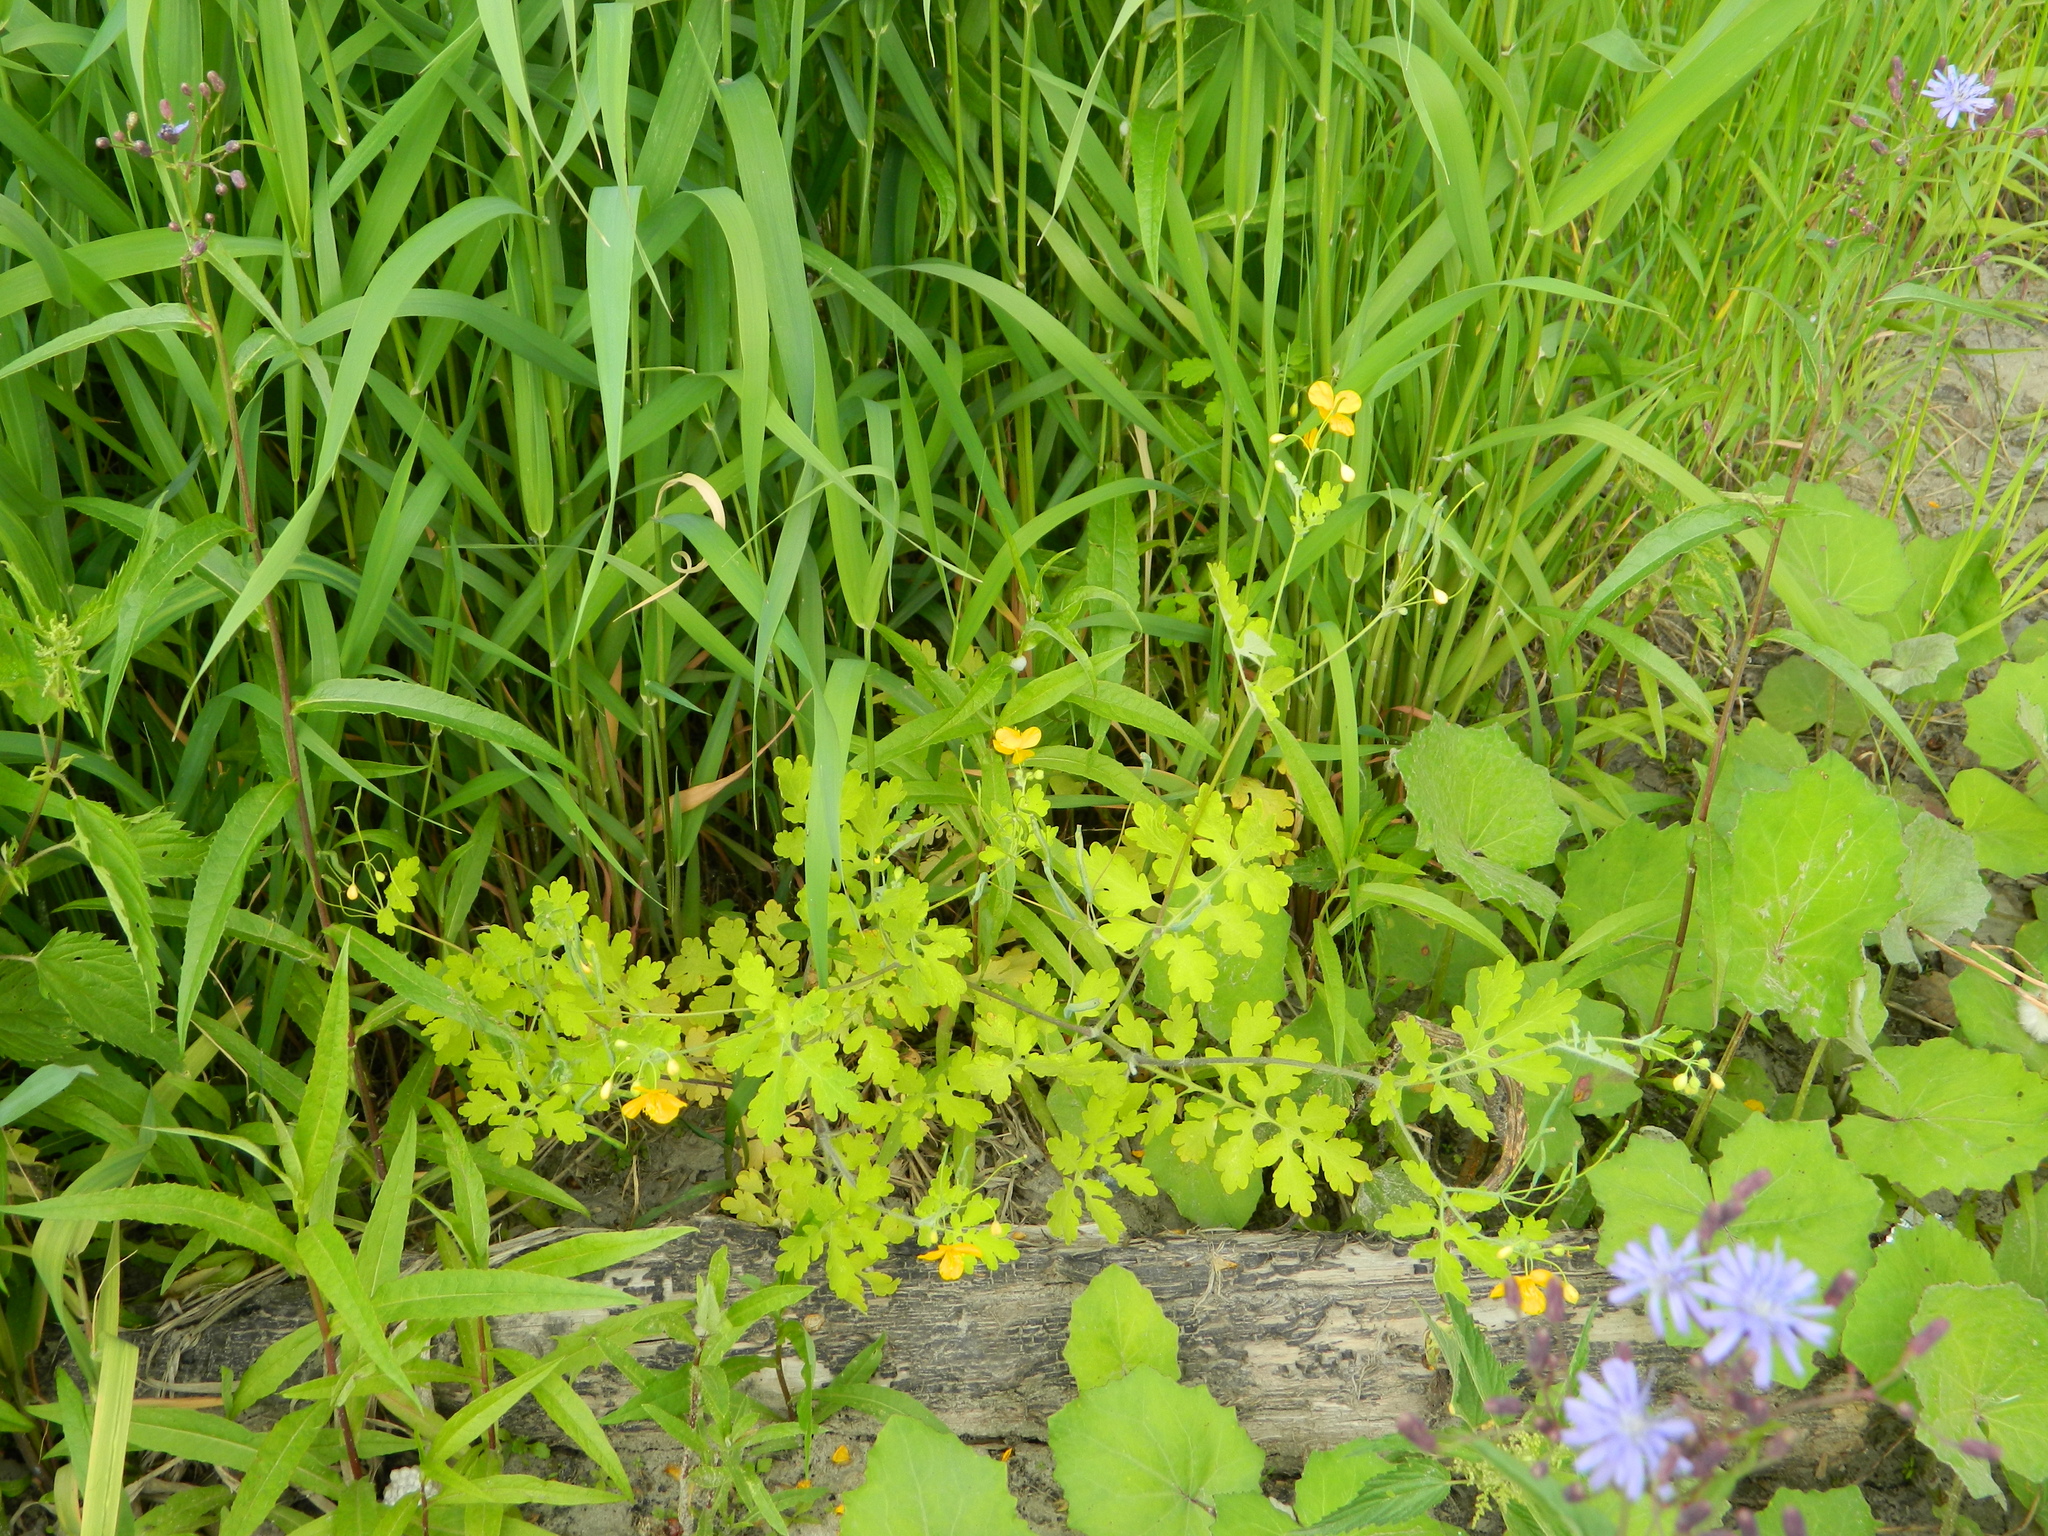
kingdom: Plantae
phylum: Tracheophyta
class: Magnoliopsida
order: Ranunculales
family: Papaveraceae
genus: Chelidonium
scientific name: Chelidonium majus
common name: Greater celandine
